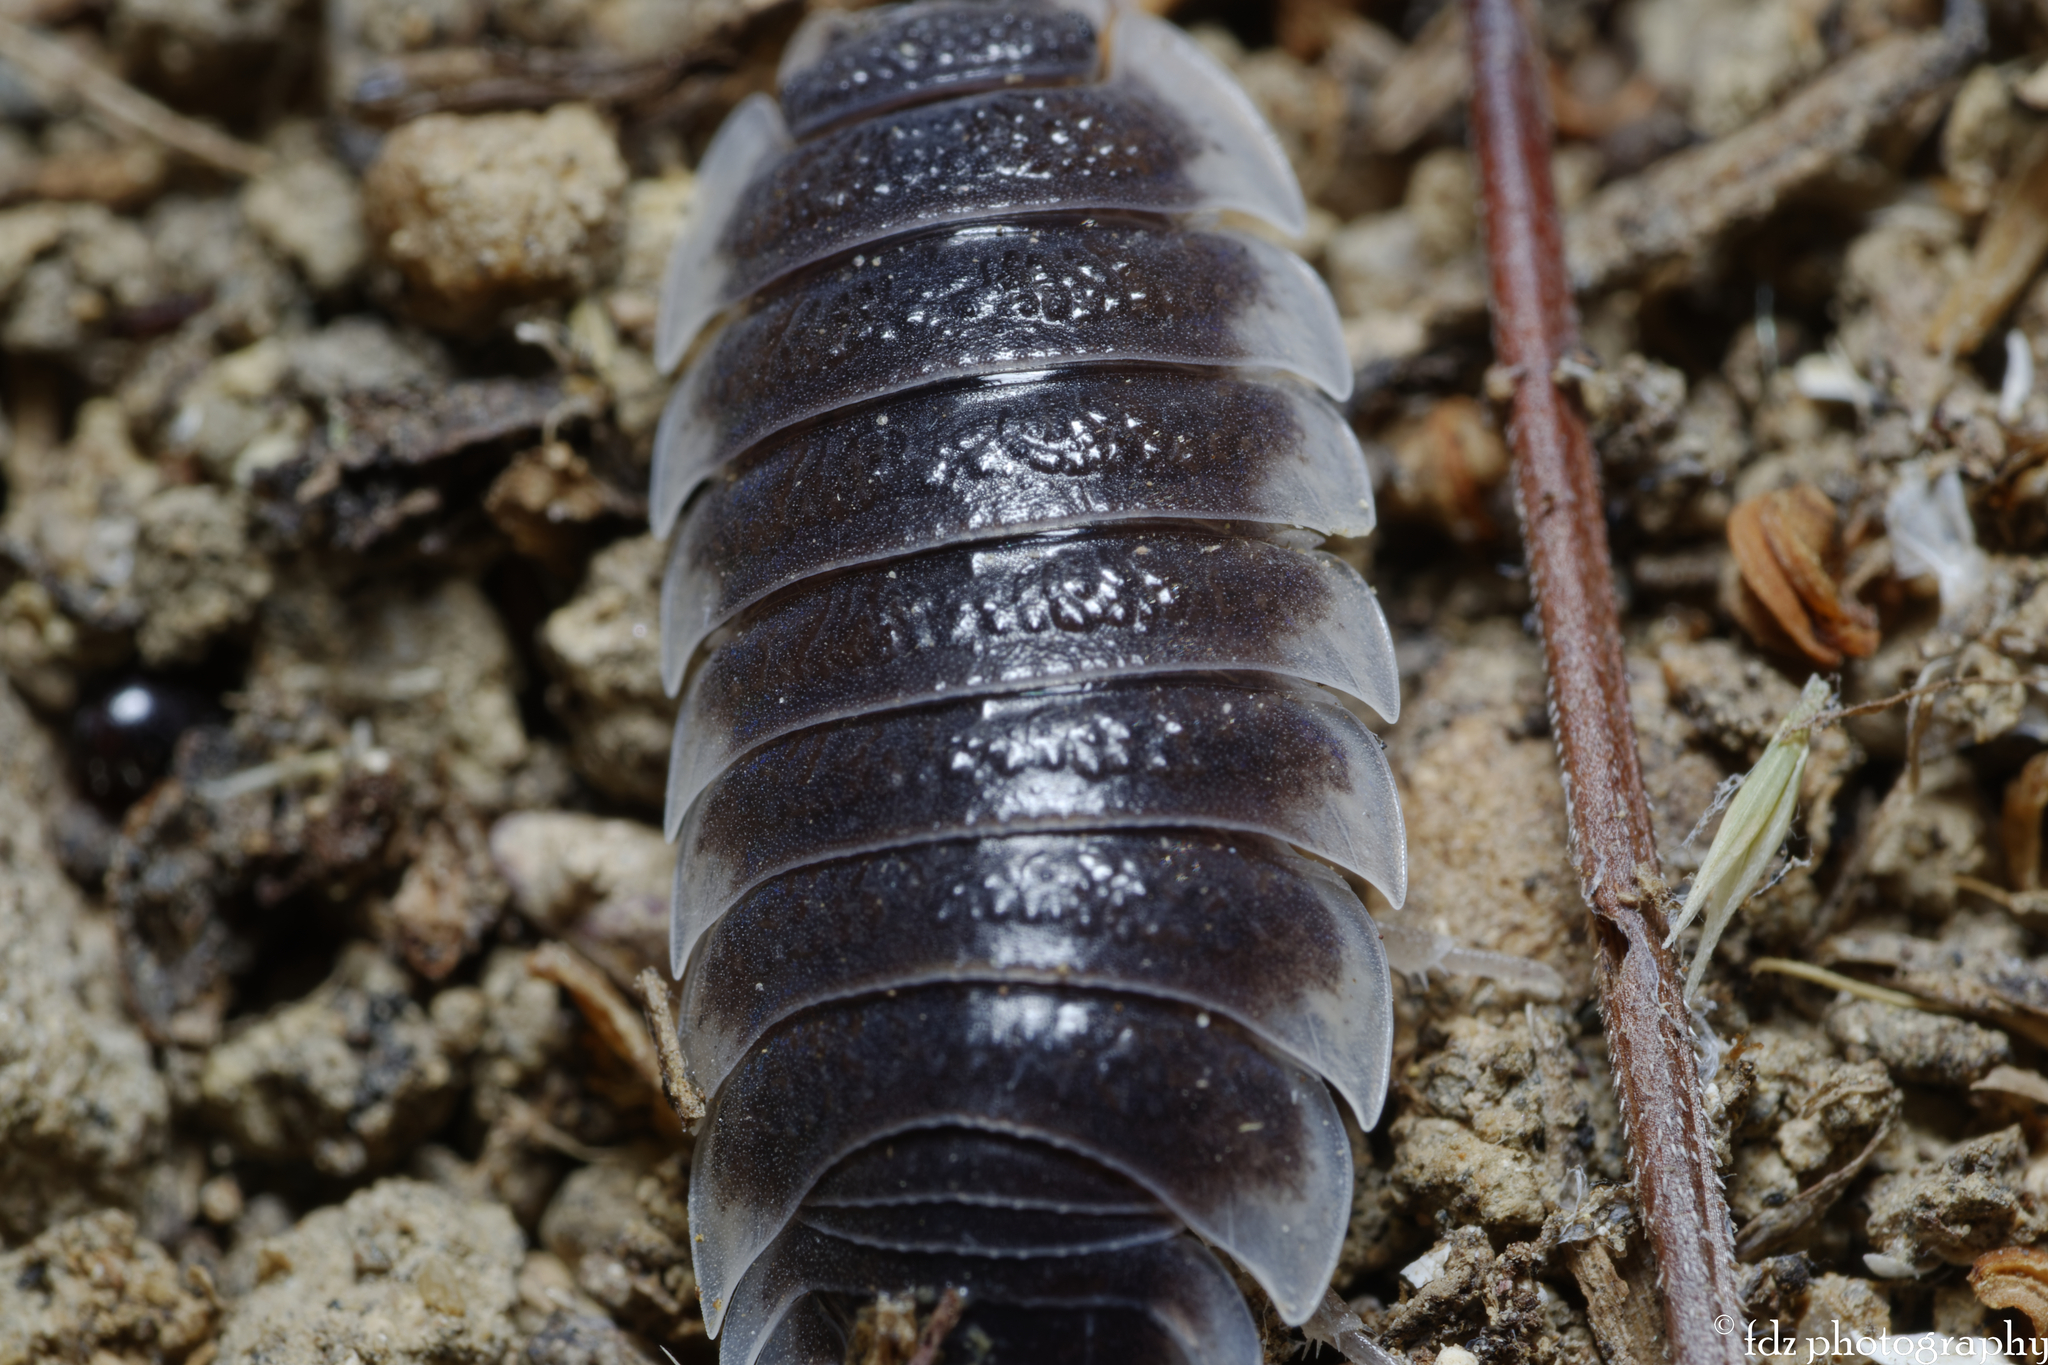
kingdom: Animalia
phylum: Arthropoda
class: Malacostraca
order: Isopoda
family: Porcellionidae
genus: Porcellio
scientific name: Porcellio hoffmannseggii
